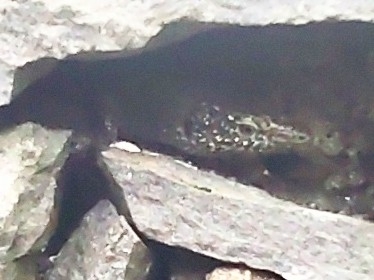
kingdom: Animalia
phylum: Chordata
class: Squamata
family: Lacertidae
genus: Teira
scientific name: Teira dugesii
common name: Madeira lizard
